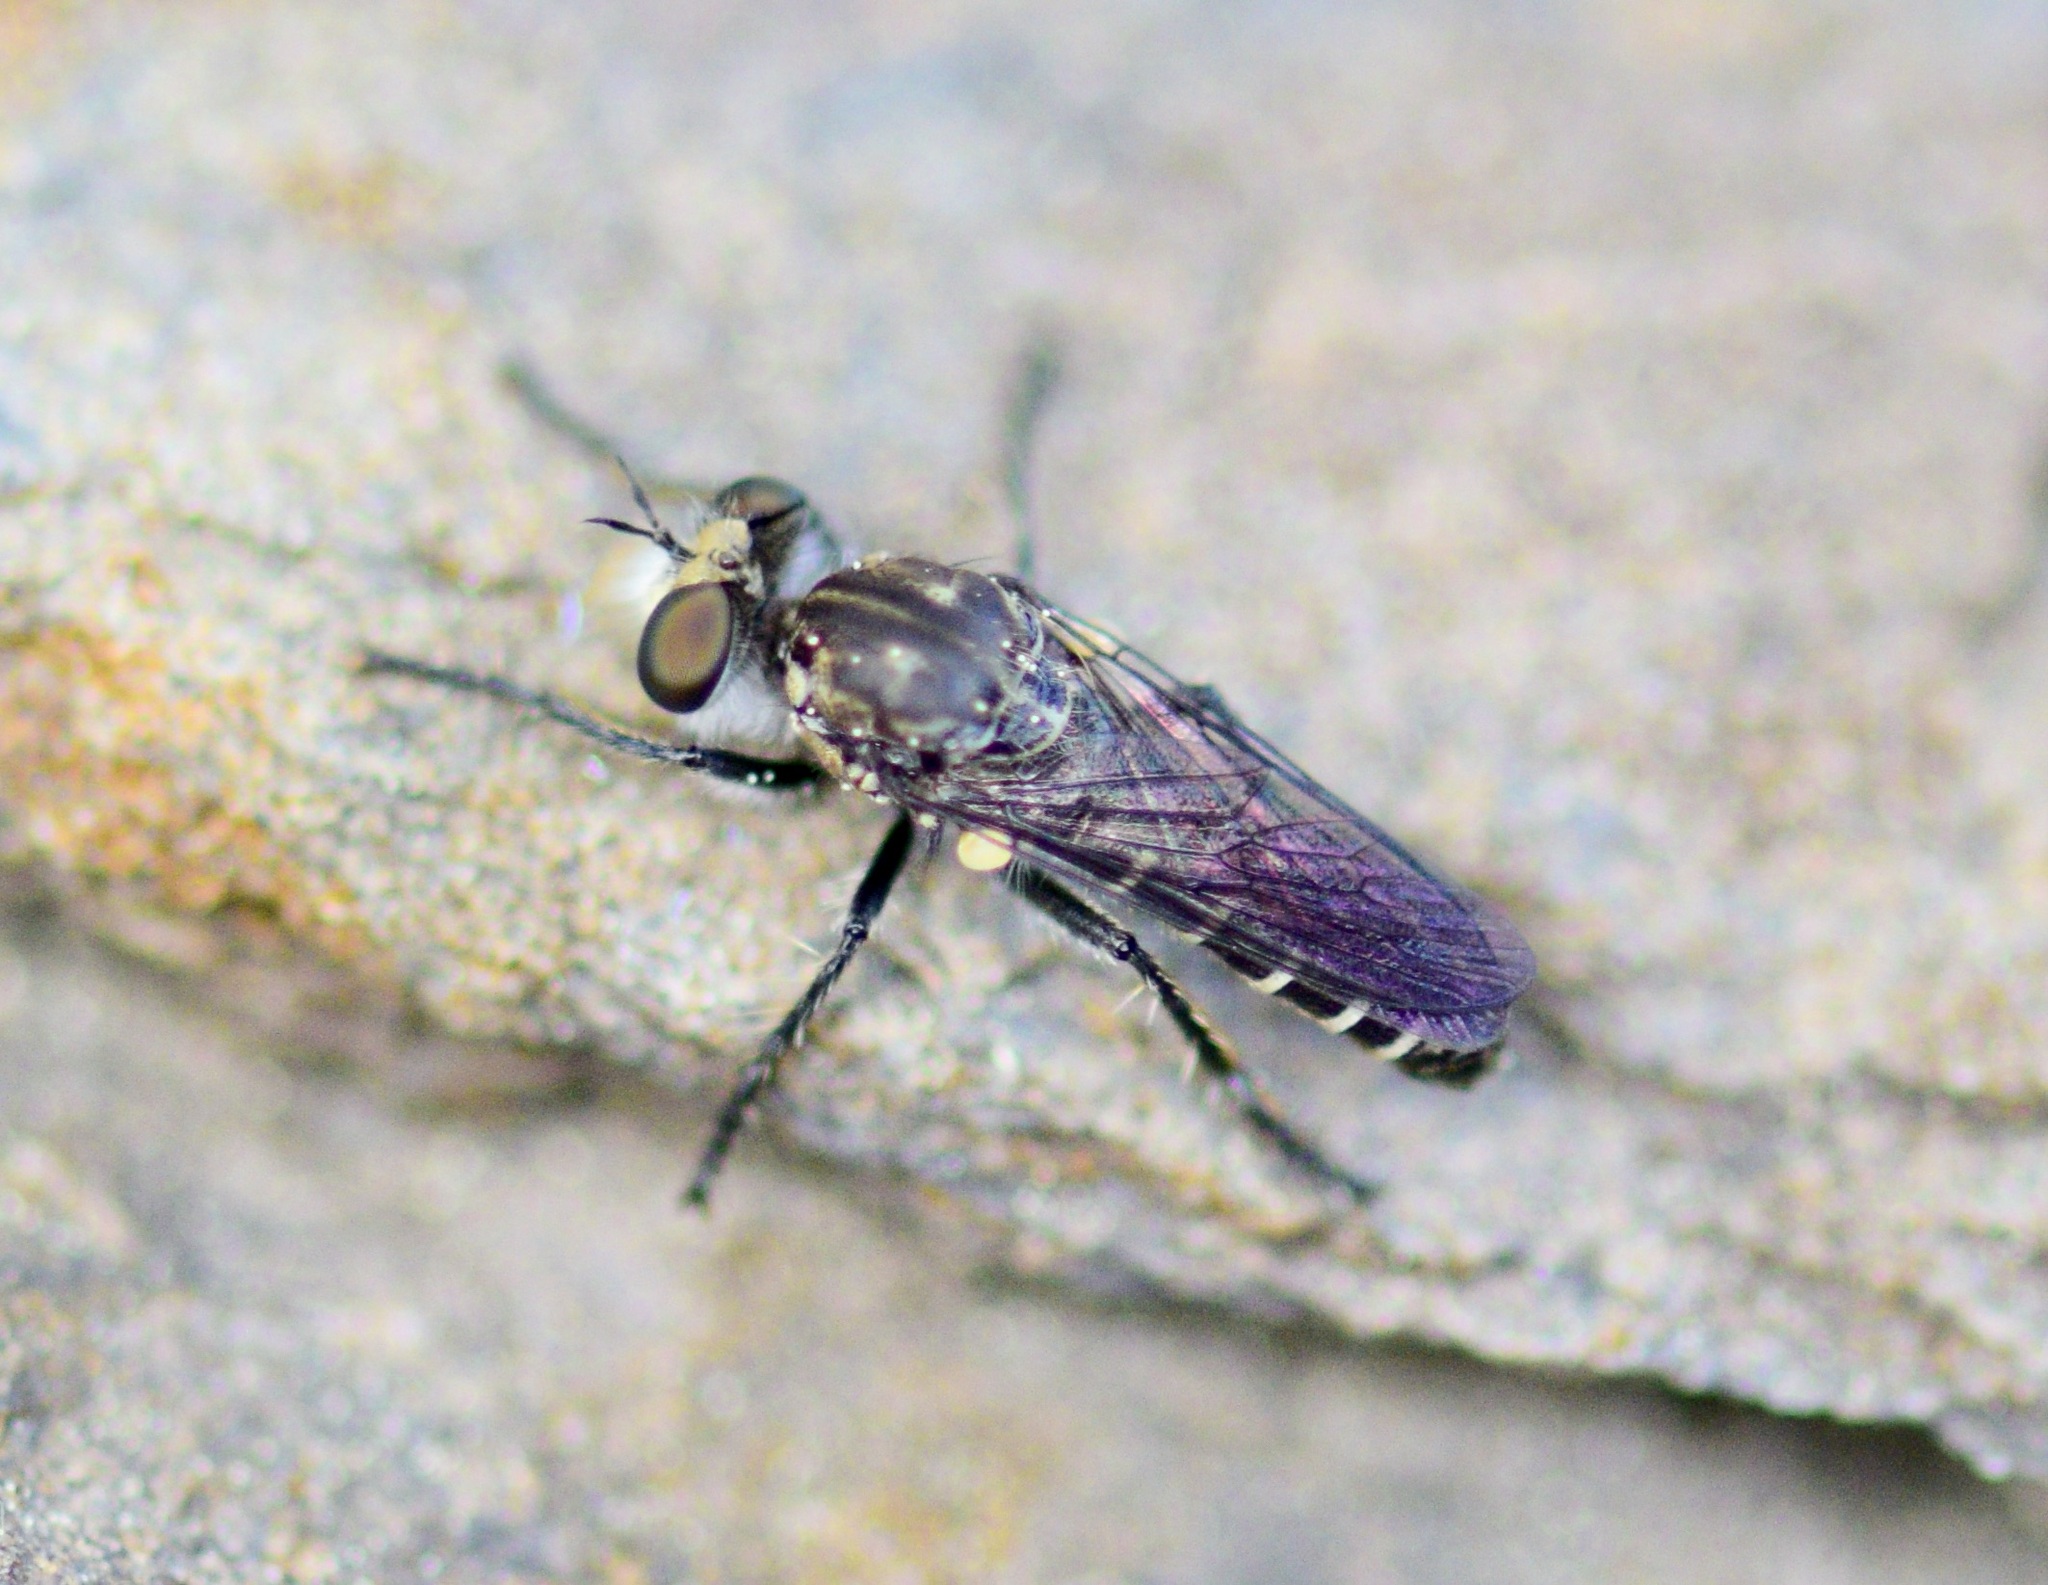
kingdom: Animalia
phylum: Arthropoda
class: Insecta
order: Diptera
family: Asilidae
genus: Cyrtopogon
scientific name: Cyrtopogon lutatius
